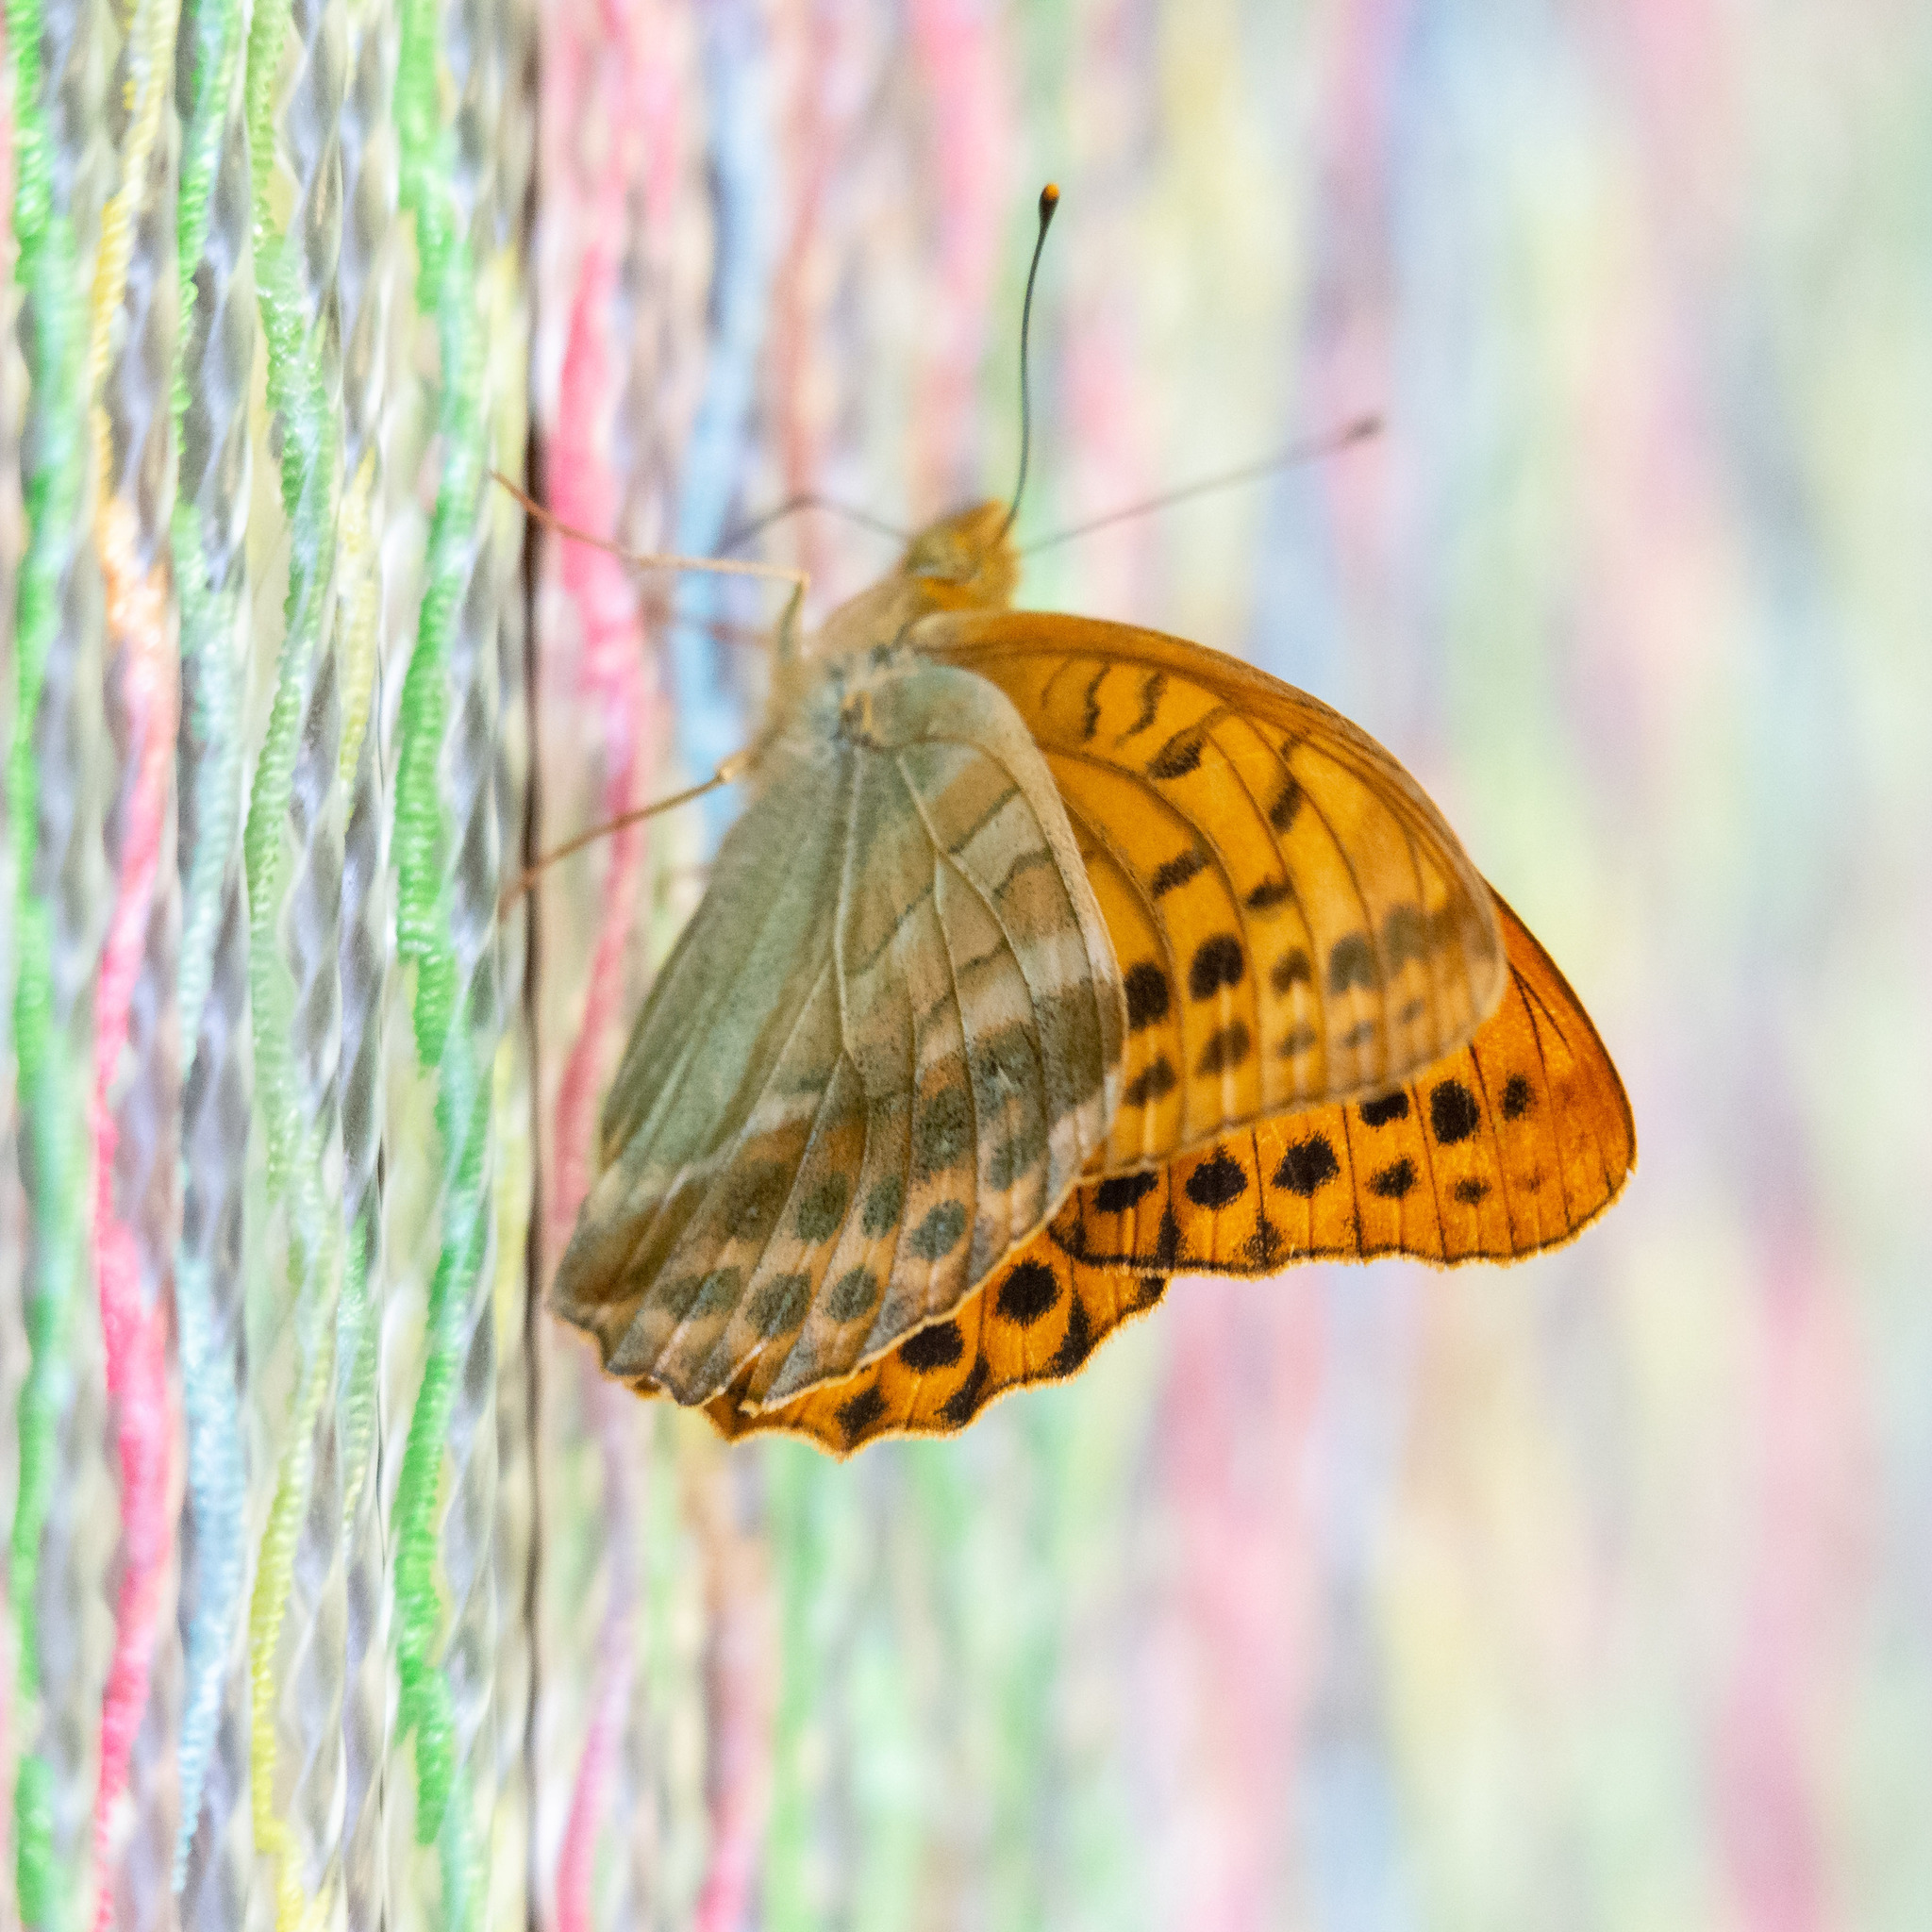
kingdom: Animalia
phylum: Arthropoda
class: Insecta
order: Lepidoptera
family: Nymphalidae
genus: Argynnis
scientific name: Argynnis paphia
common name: Silver-washed fritillary
